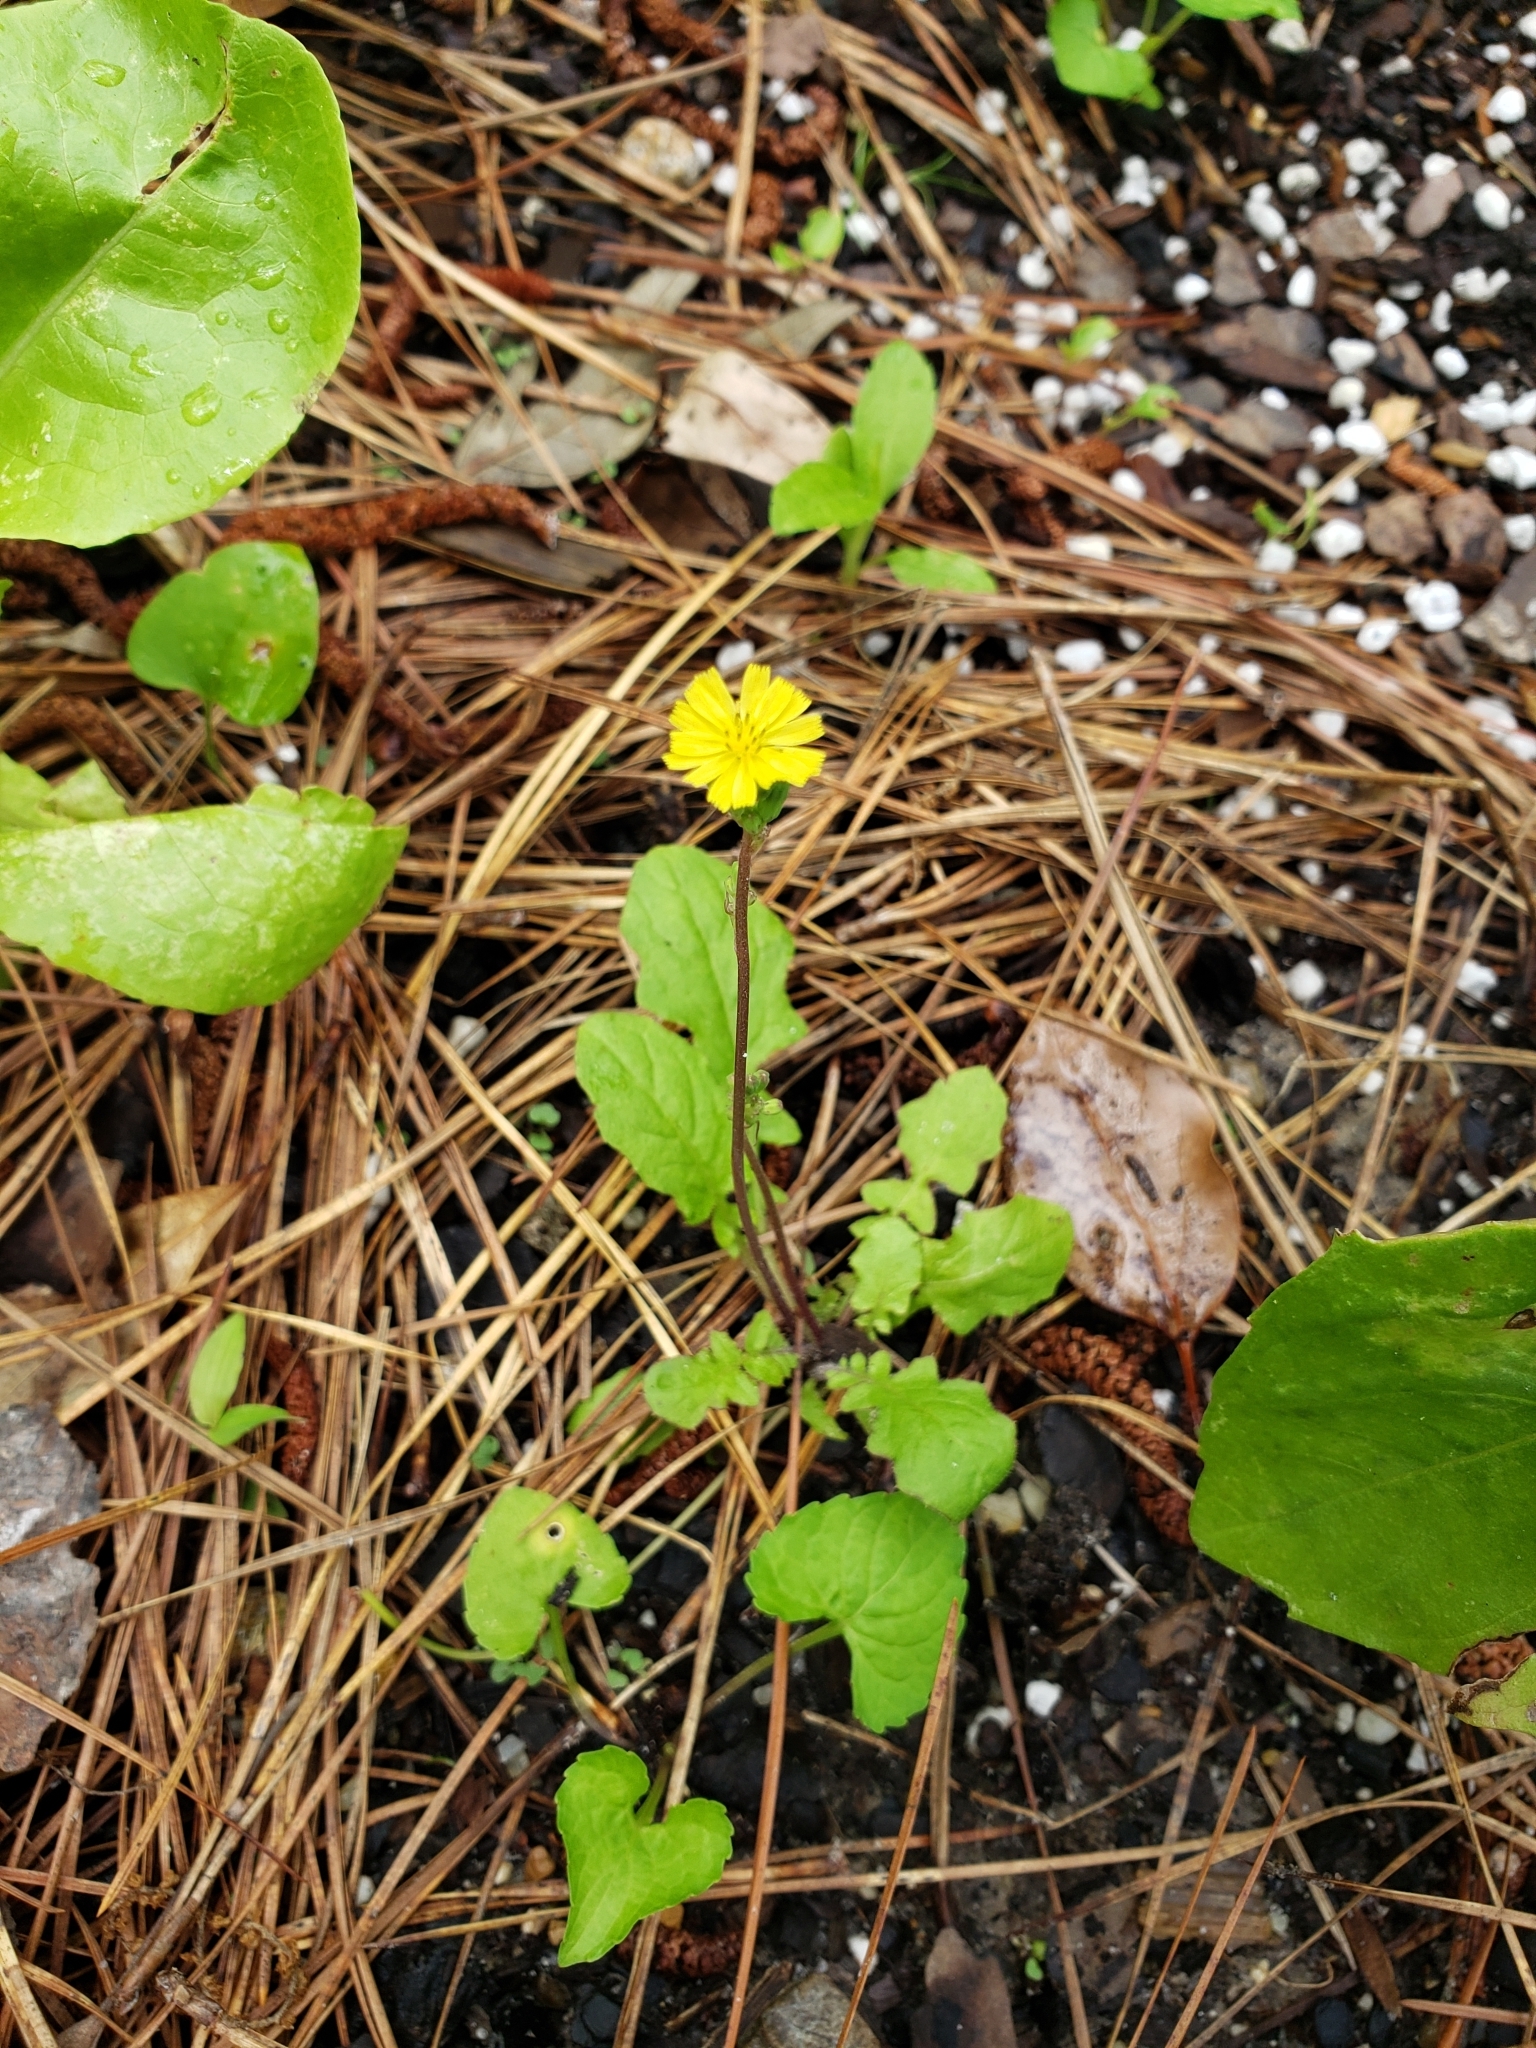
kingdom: Plantae
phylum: Tracheophyta
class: Magnoliopsida
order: Asterales
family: Asteraceae
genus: Youngia
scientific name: Youngia japonica
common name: Oriental false hawksbeard
